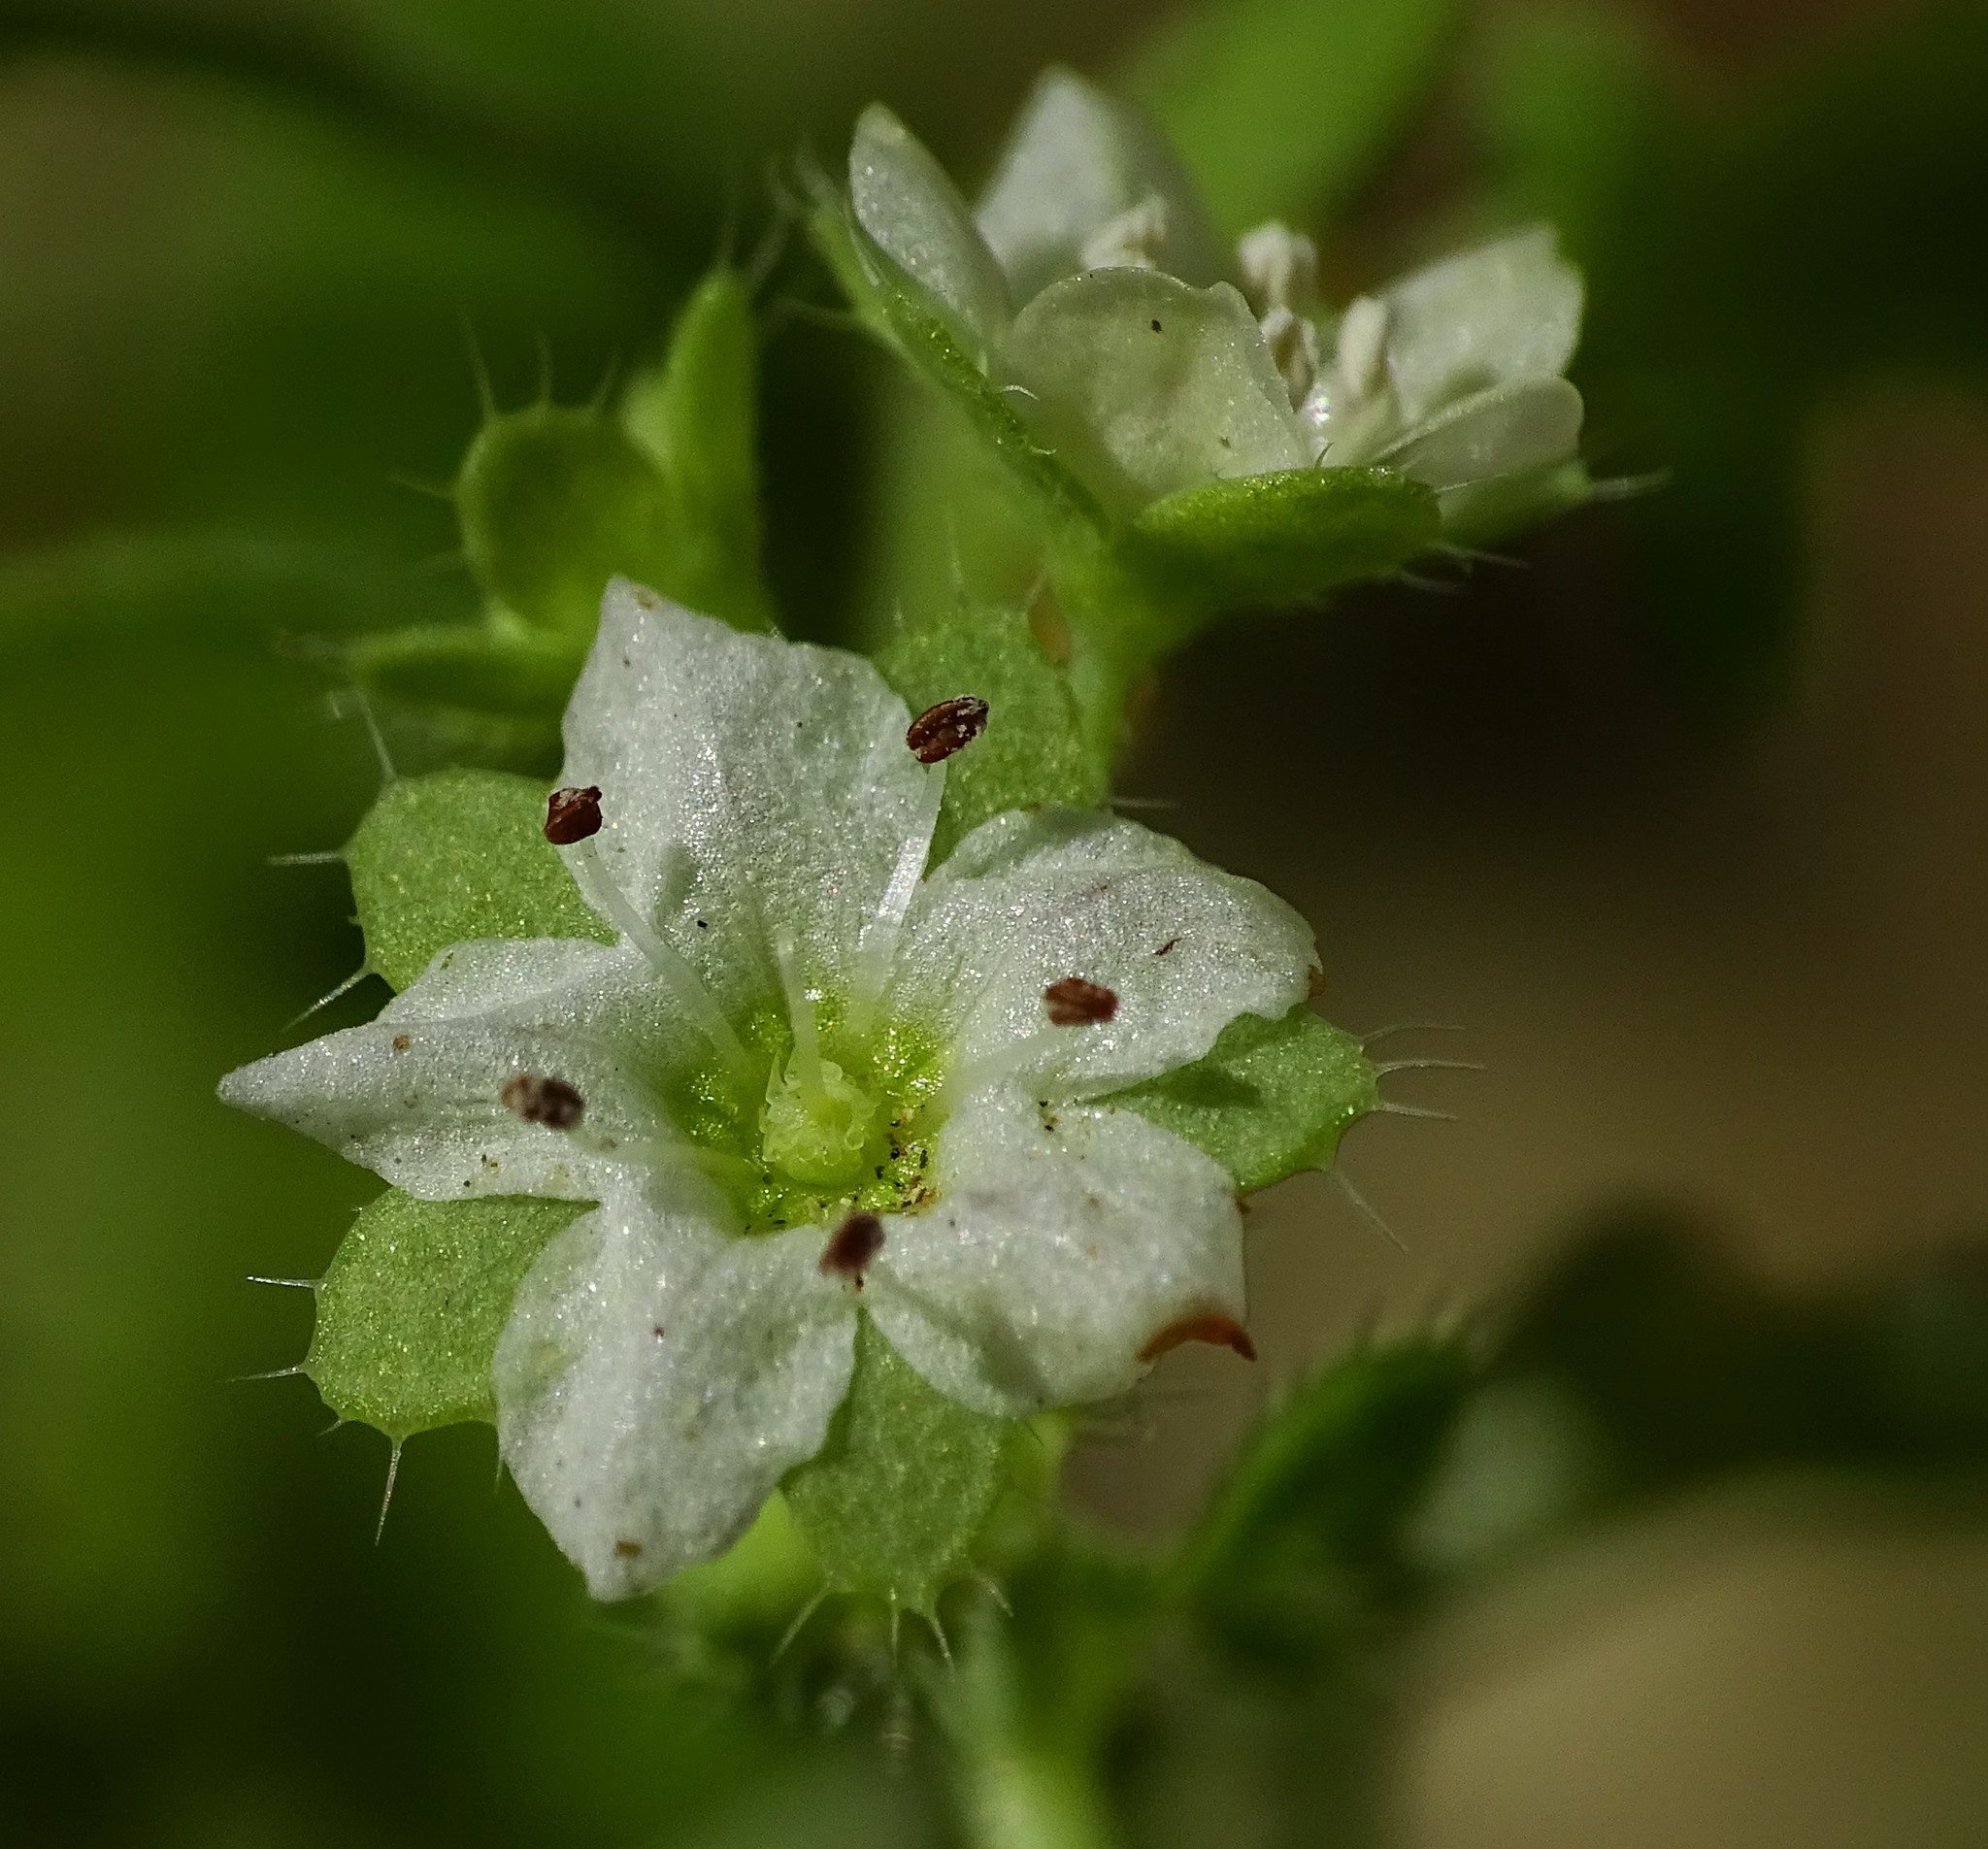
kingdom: Plantae
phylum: Tracheophyta
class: Magnoliopsida
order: Boraginales
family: Hydrophyllaceae
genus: Pholistoma
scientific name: Pholistoma membranaceum
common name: White fiesta-flower
